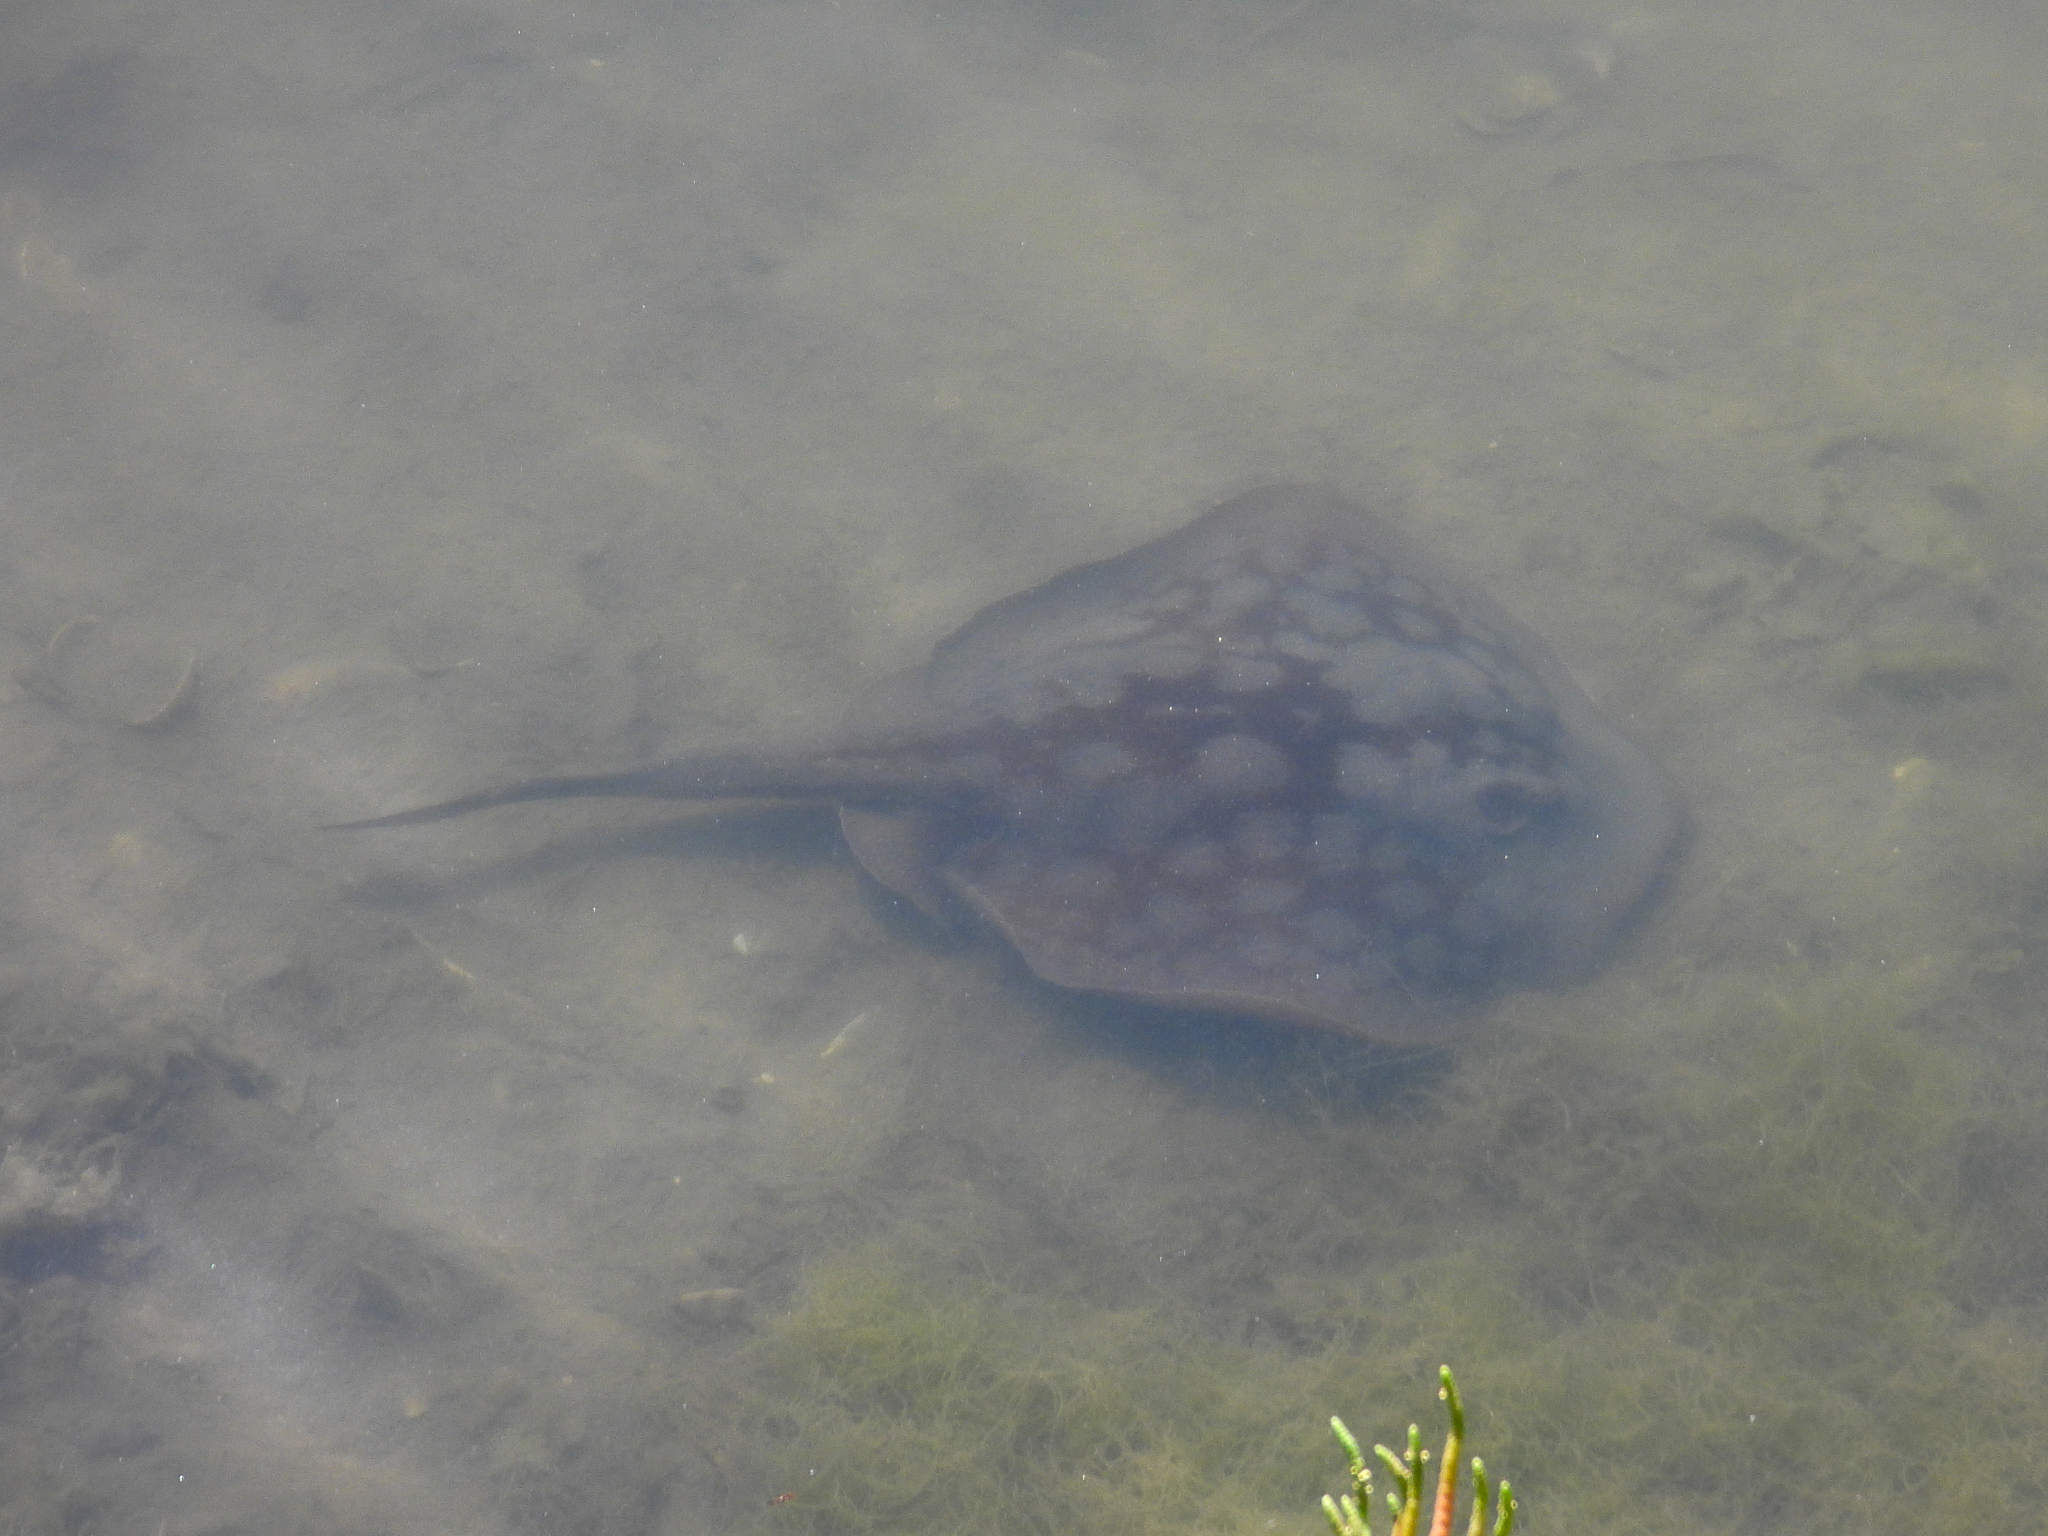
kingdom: Animalia
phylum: Chordata
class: Elasmobranchii
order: Myliobatiformes
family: Urolophidae
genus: Urolophus
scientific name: Urolophus halleri
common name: Round stingray
